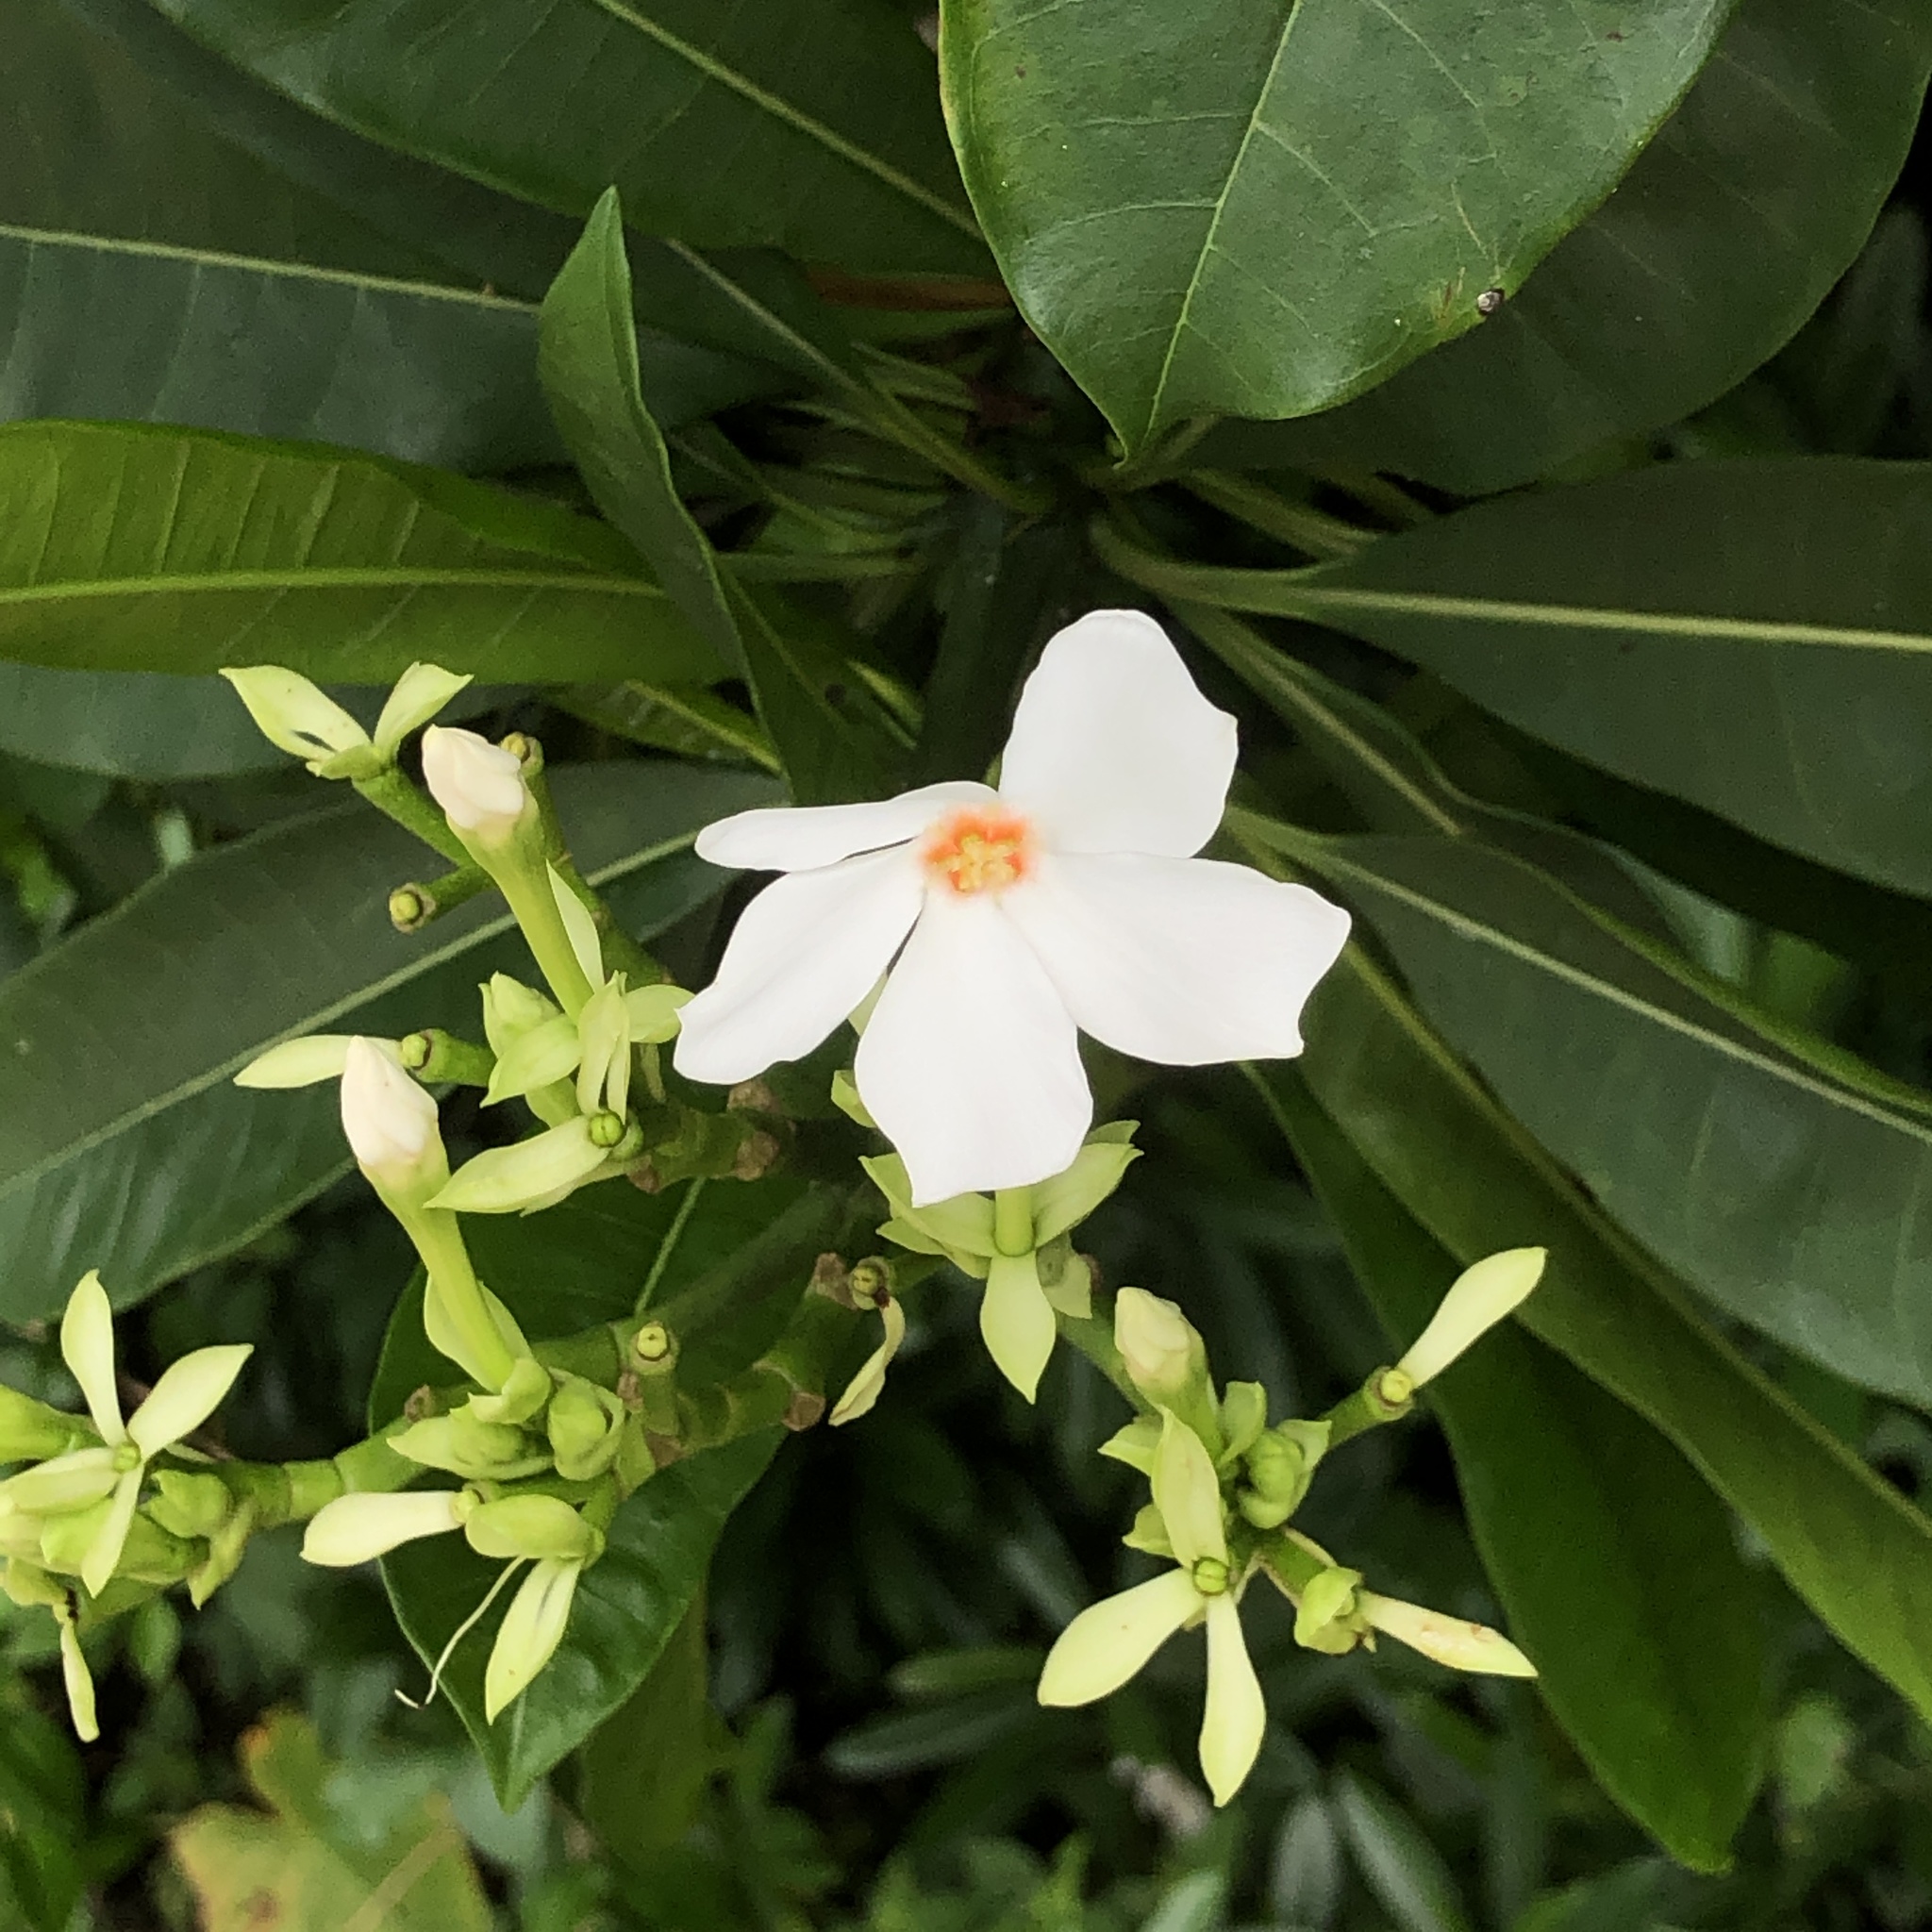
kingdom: Plantae
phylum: Tracheophyta
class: Magnoliopsida
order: Gentianales
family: Apocynaceae
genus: Cerbera
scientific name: Cerbera manghas
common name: Reva
